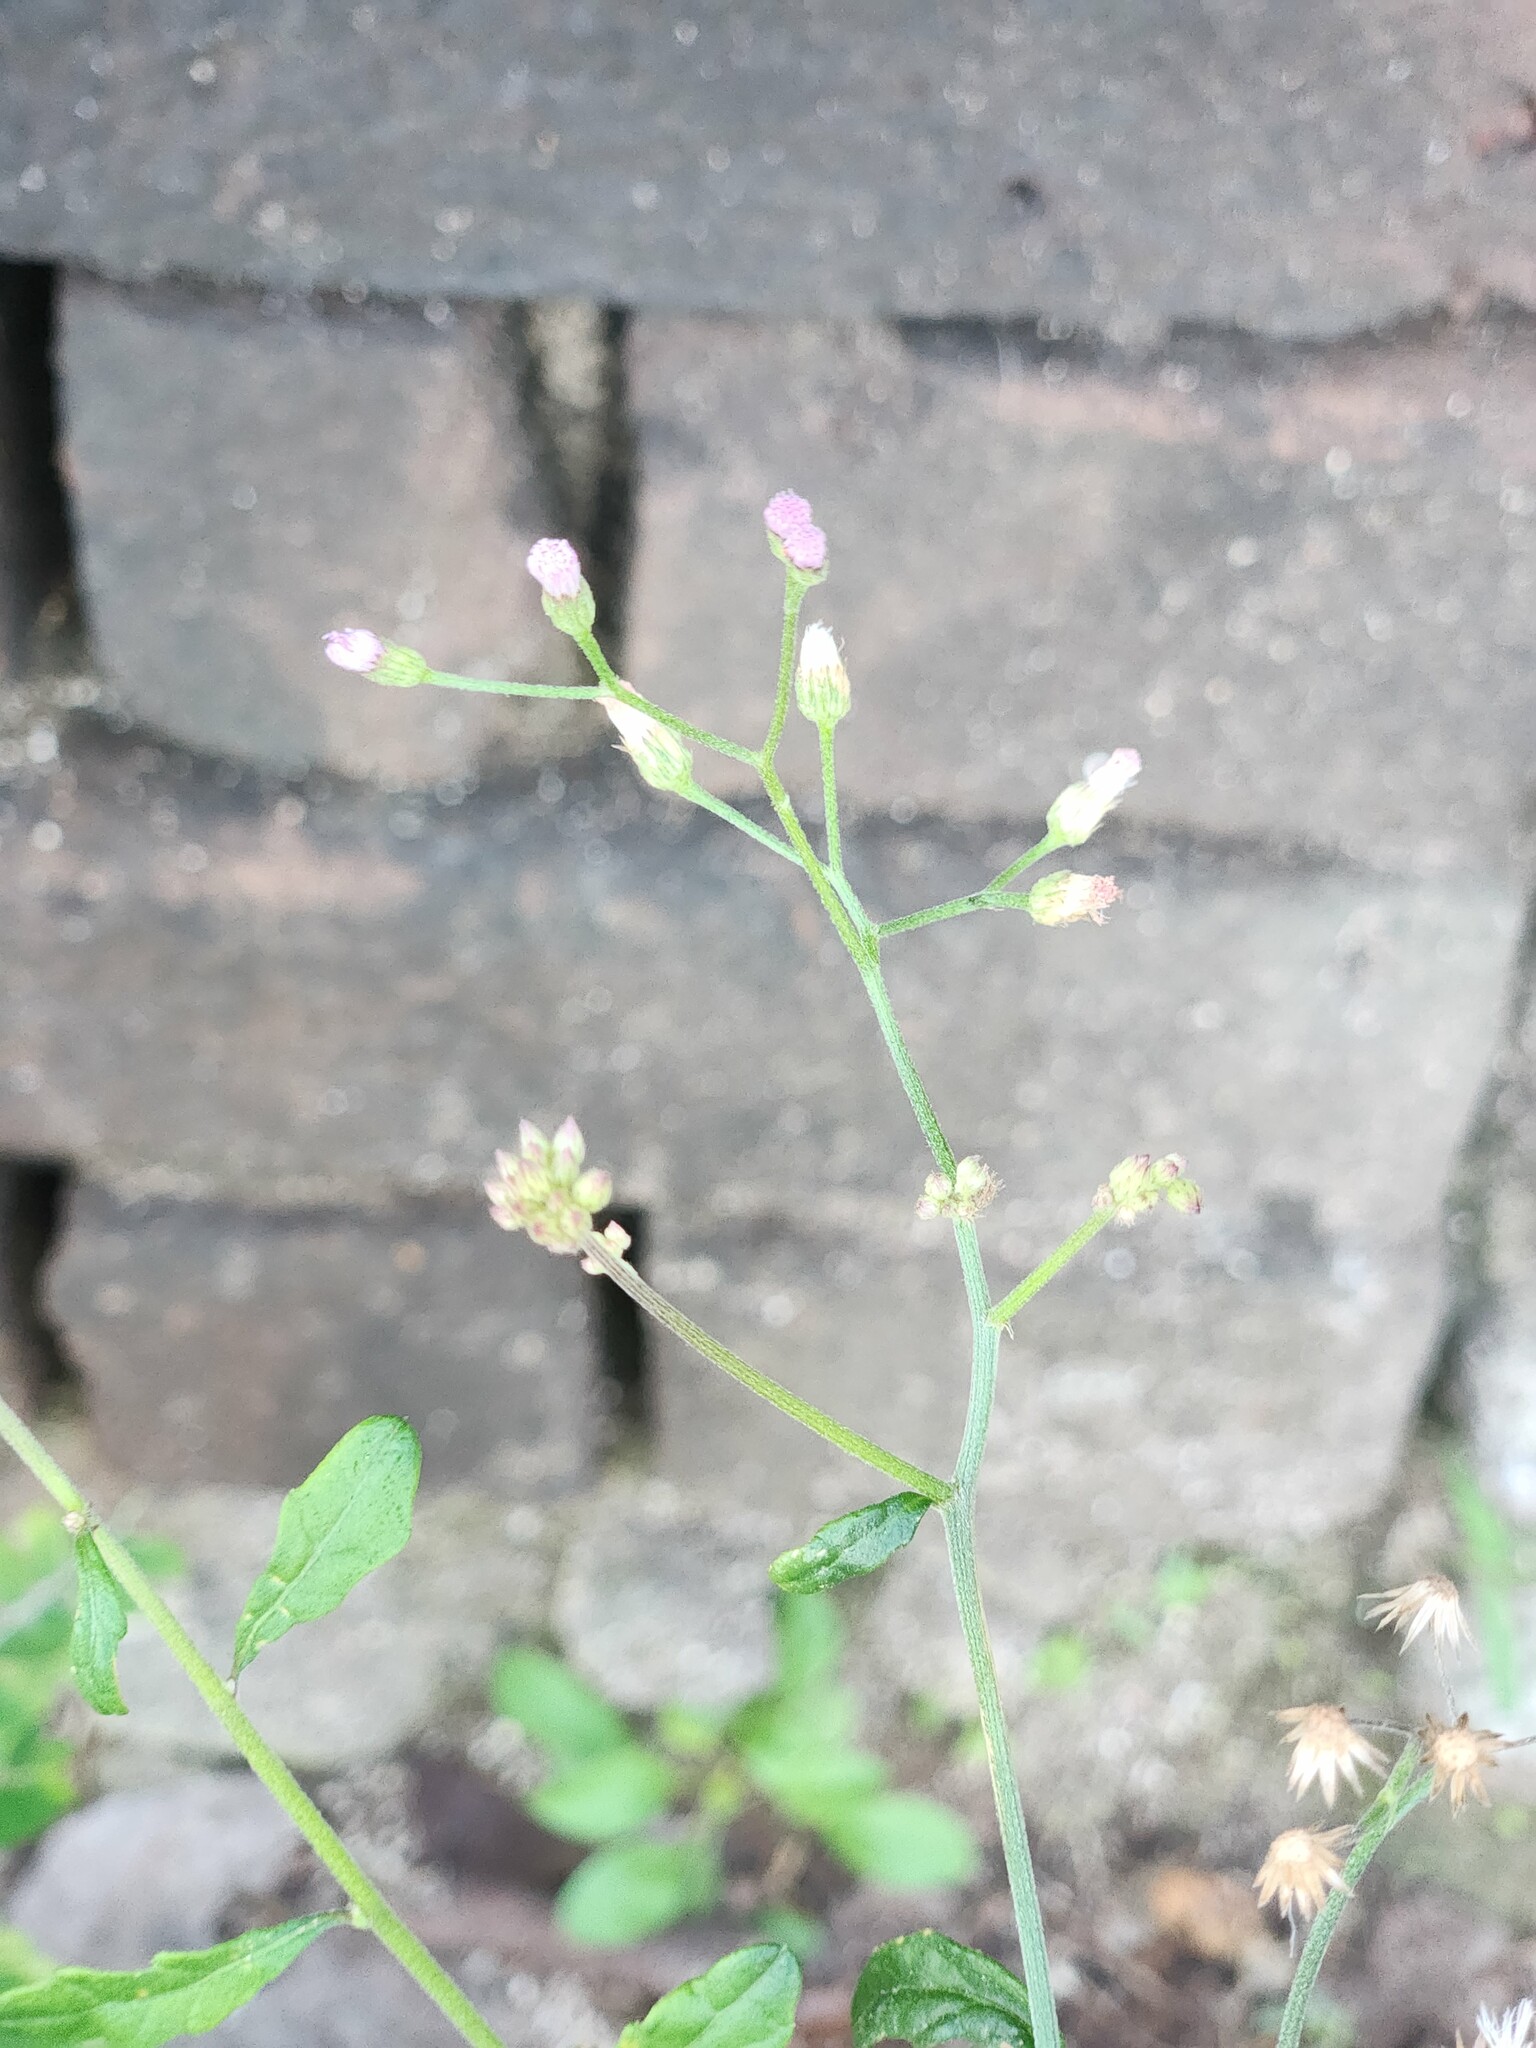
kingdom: Plantae
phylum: Tracheophyta
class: Magnoliopsida
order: Asterales
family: Asteraceae
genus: Cyanthillium
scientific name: Cyanthillium cinereum
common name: Little ironweed
